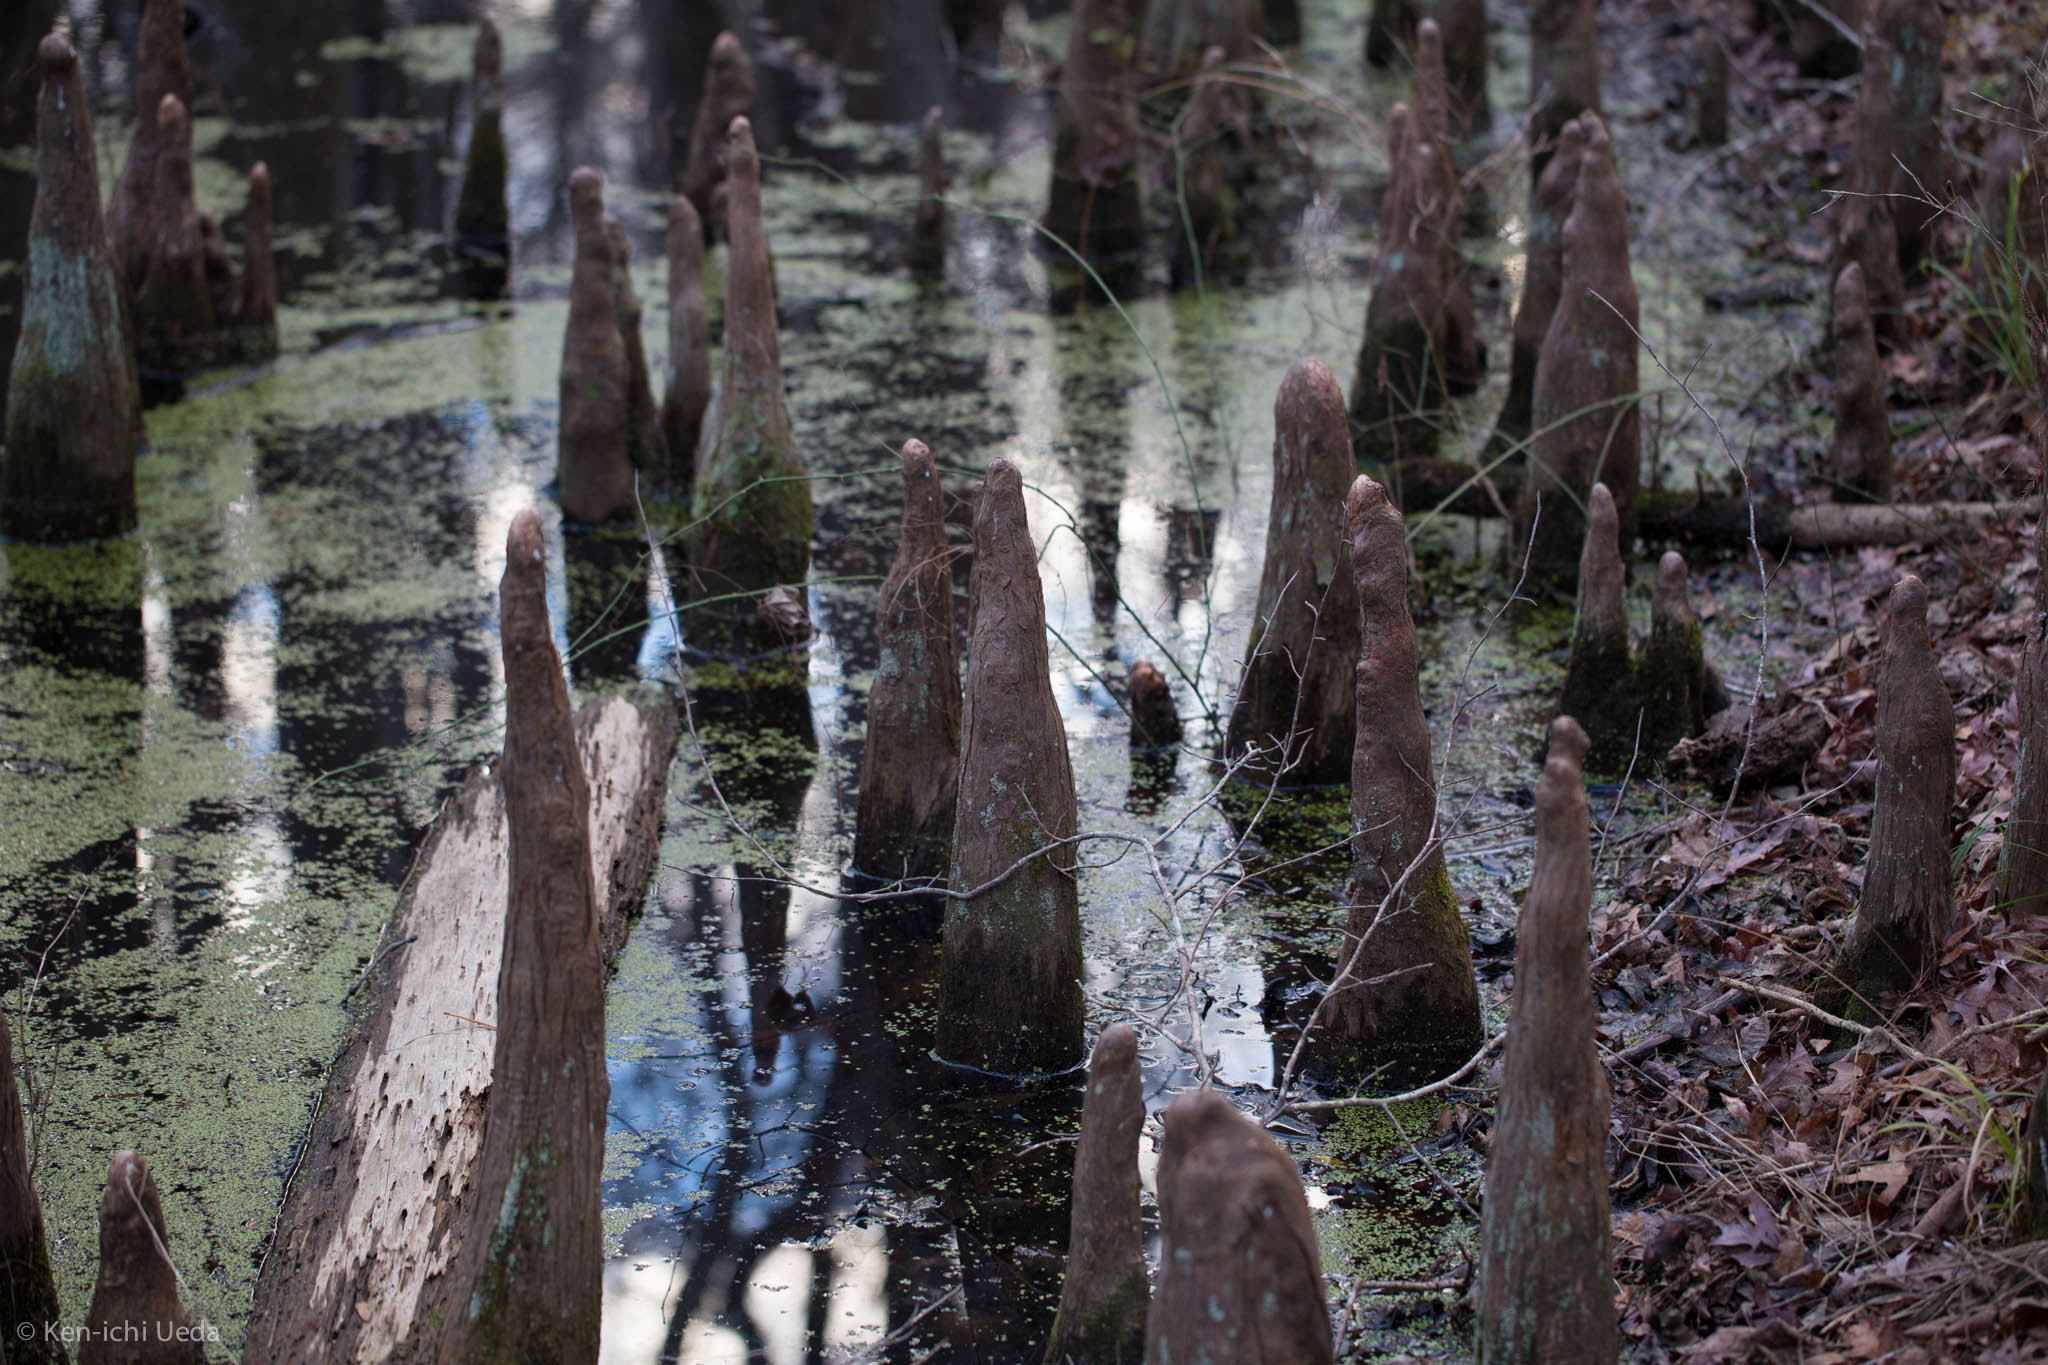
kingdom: Plantae
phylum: Tracheophyta
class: Pinopsida
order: Pinales
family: Cupressaceae
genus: Taxodium
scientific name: Taxodium distichum
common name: Bald cypress
